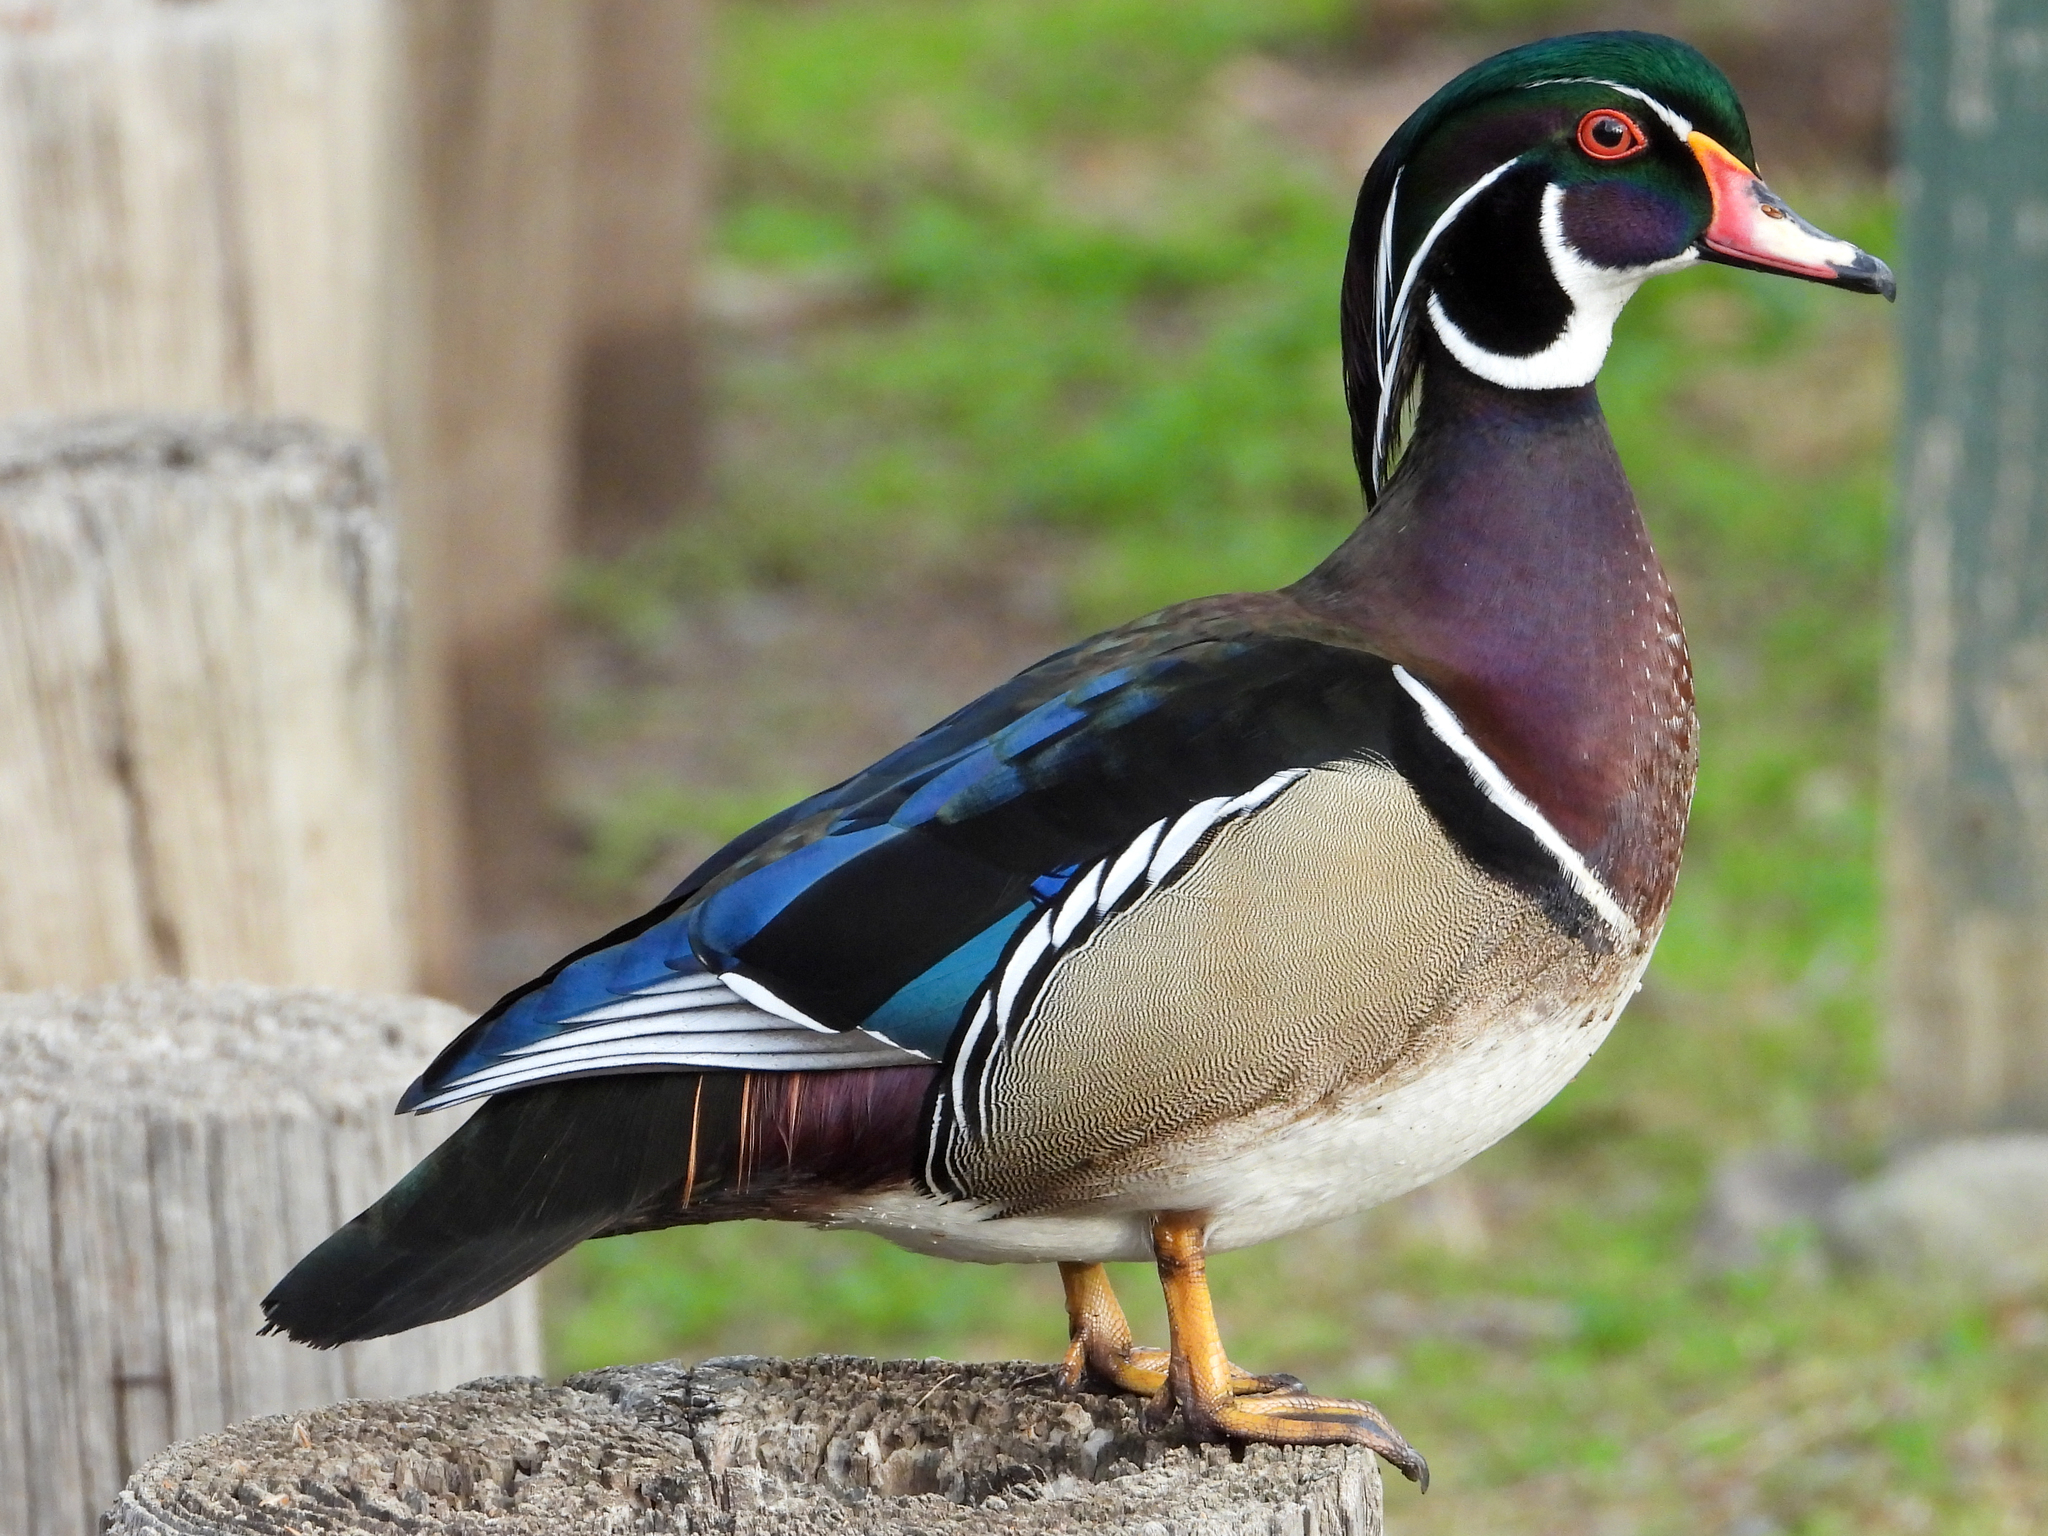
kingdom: Animalia
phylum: Chordata
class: Aves
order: Anseriformes
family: Anatidae
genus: Aix
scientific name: Aix sponsa
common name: Wood duck
